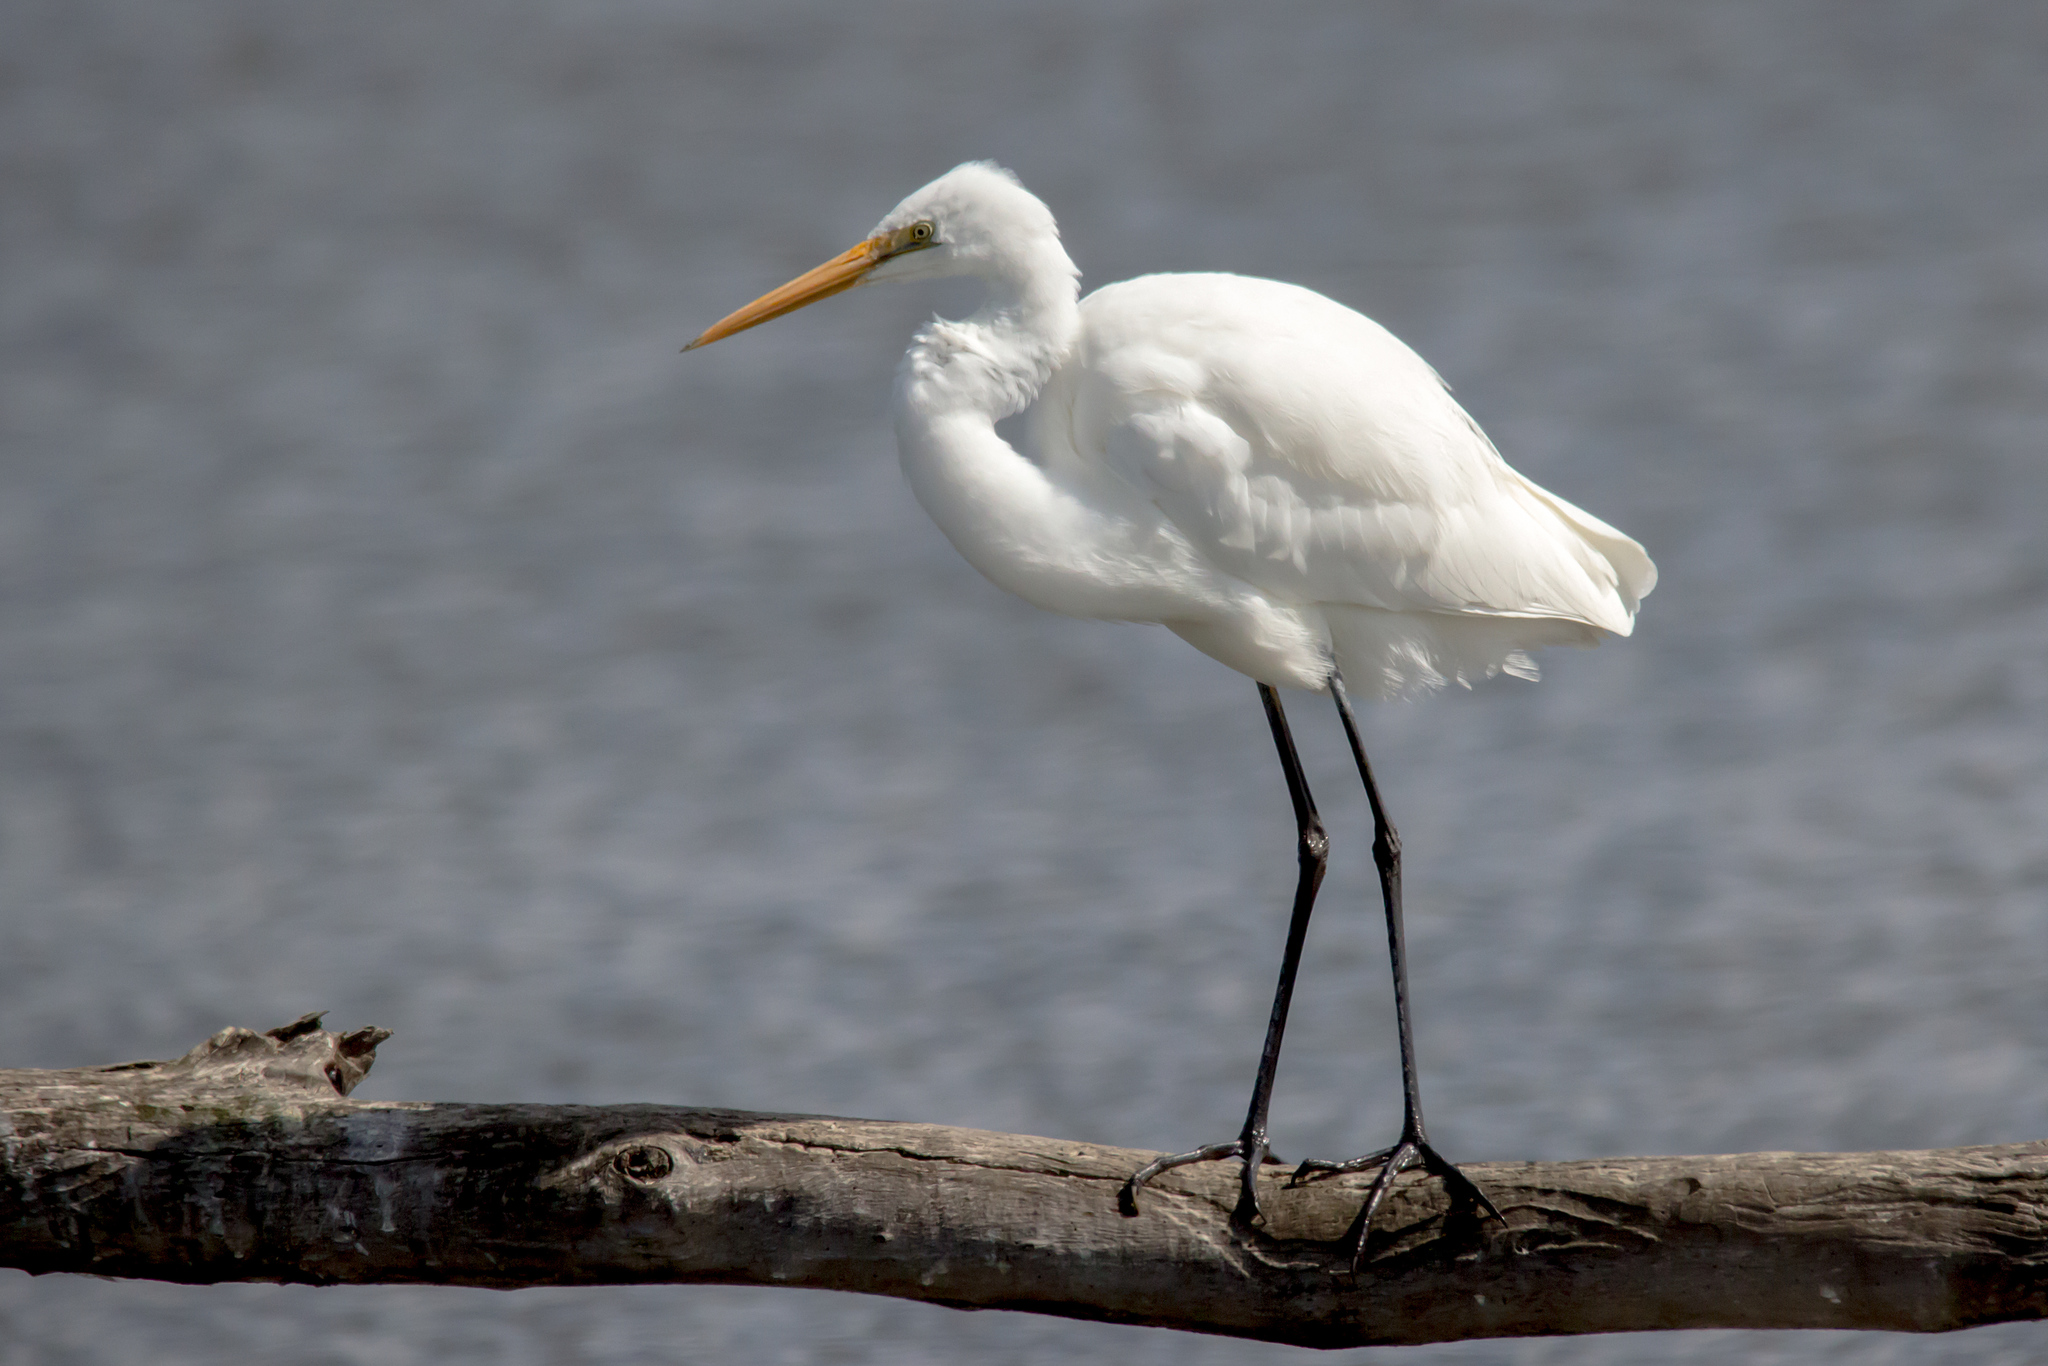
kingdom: Animalia
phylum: Chordata
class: Aves
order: Pelecaniformes
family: Ardeidae
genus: Ardea
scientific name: Ardea alba
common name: Great egret
